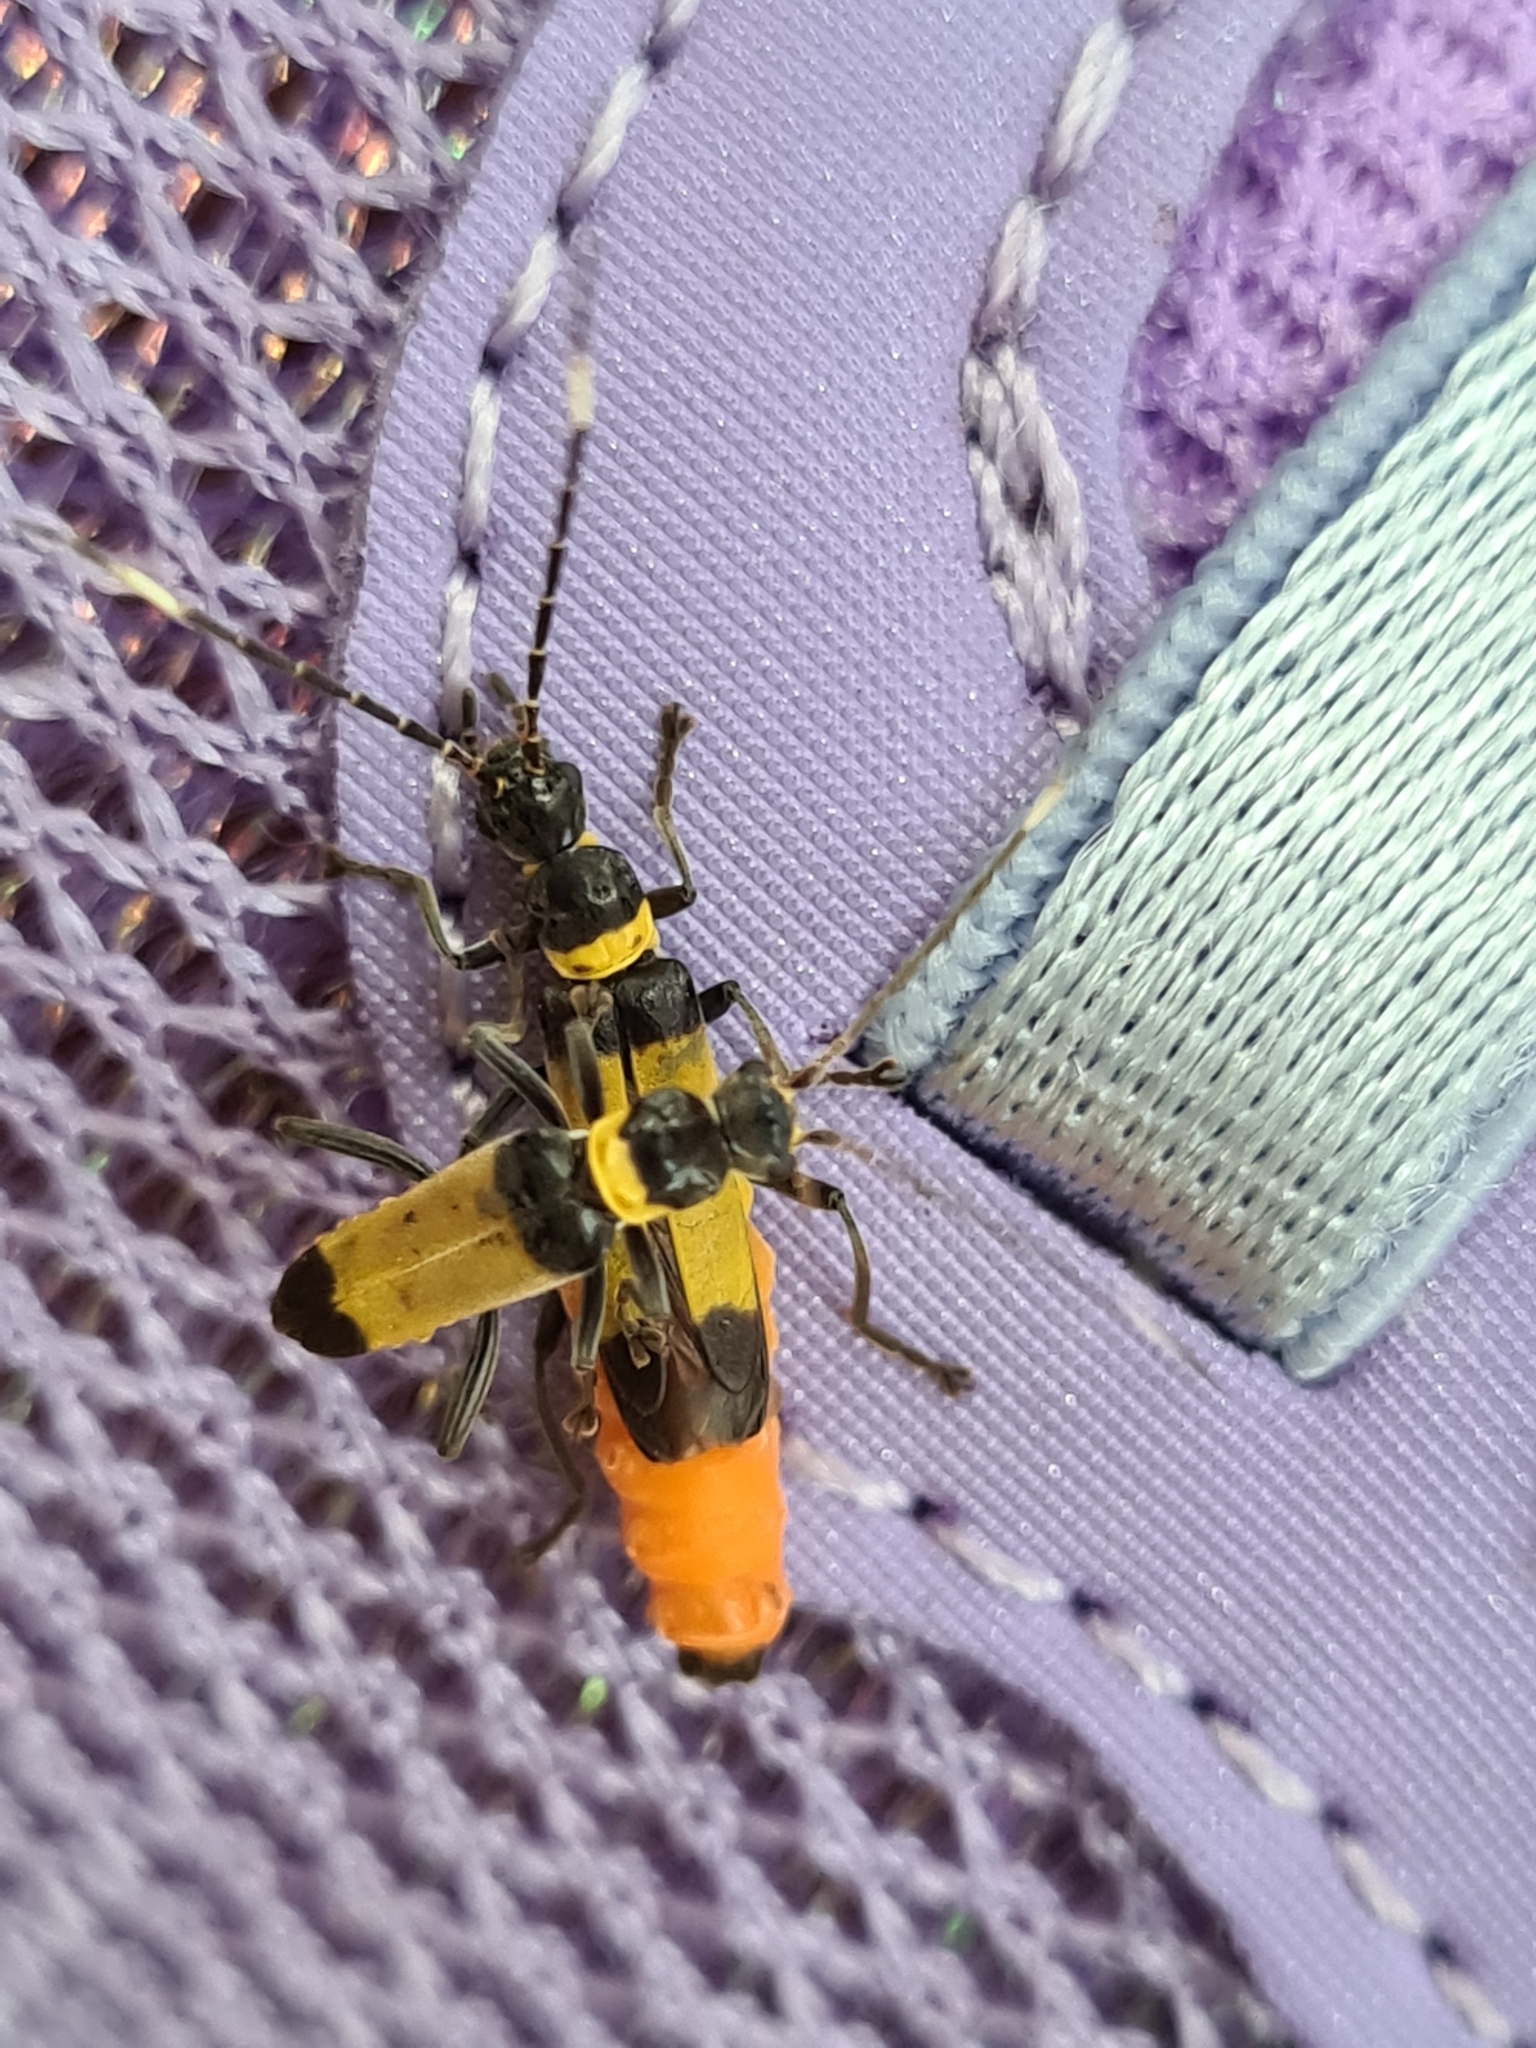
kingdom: Animalia
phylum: Arthropoda
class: Insecta
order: Coleoptera
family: Cantharidae
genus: Chauliognathus
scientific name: Chauliognathus
